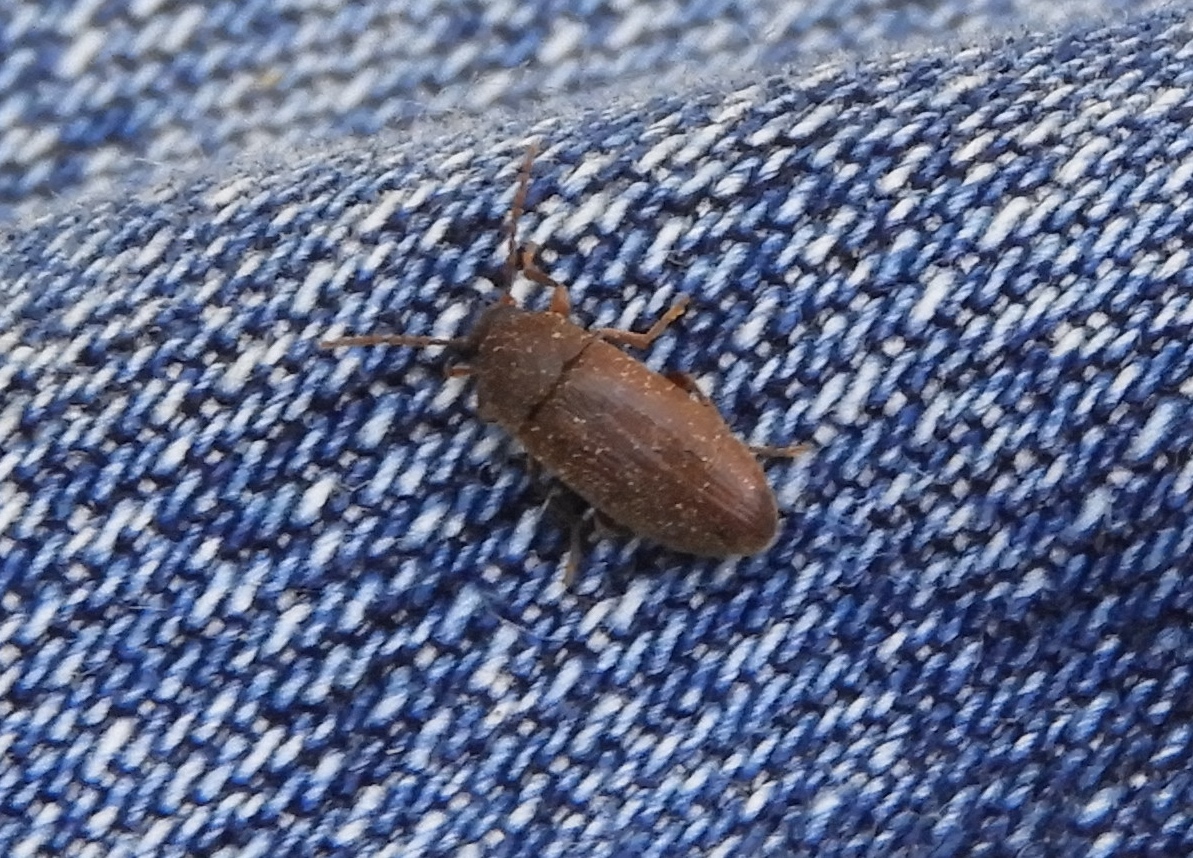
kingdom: Animalia
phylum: Arthropoda
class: Insecta
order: Coleoptera
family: Tenebrionidae
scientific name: Tenebrionidae
